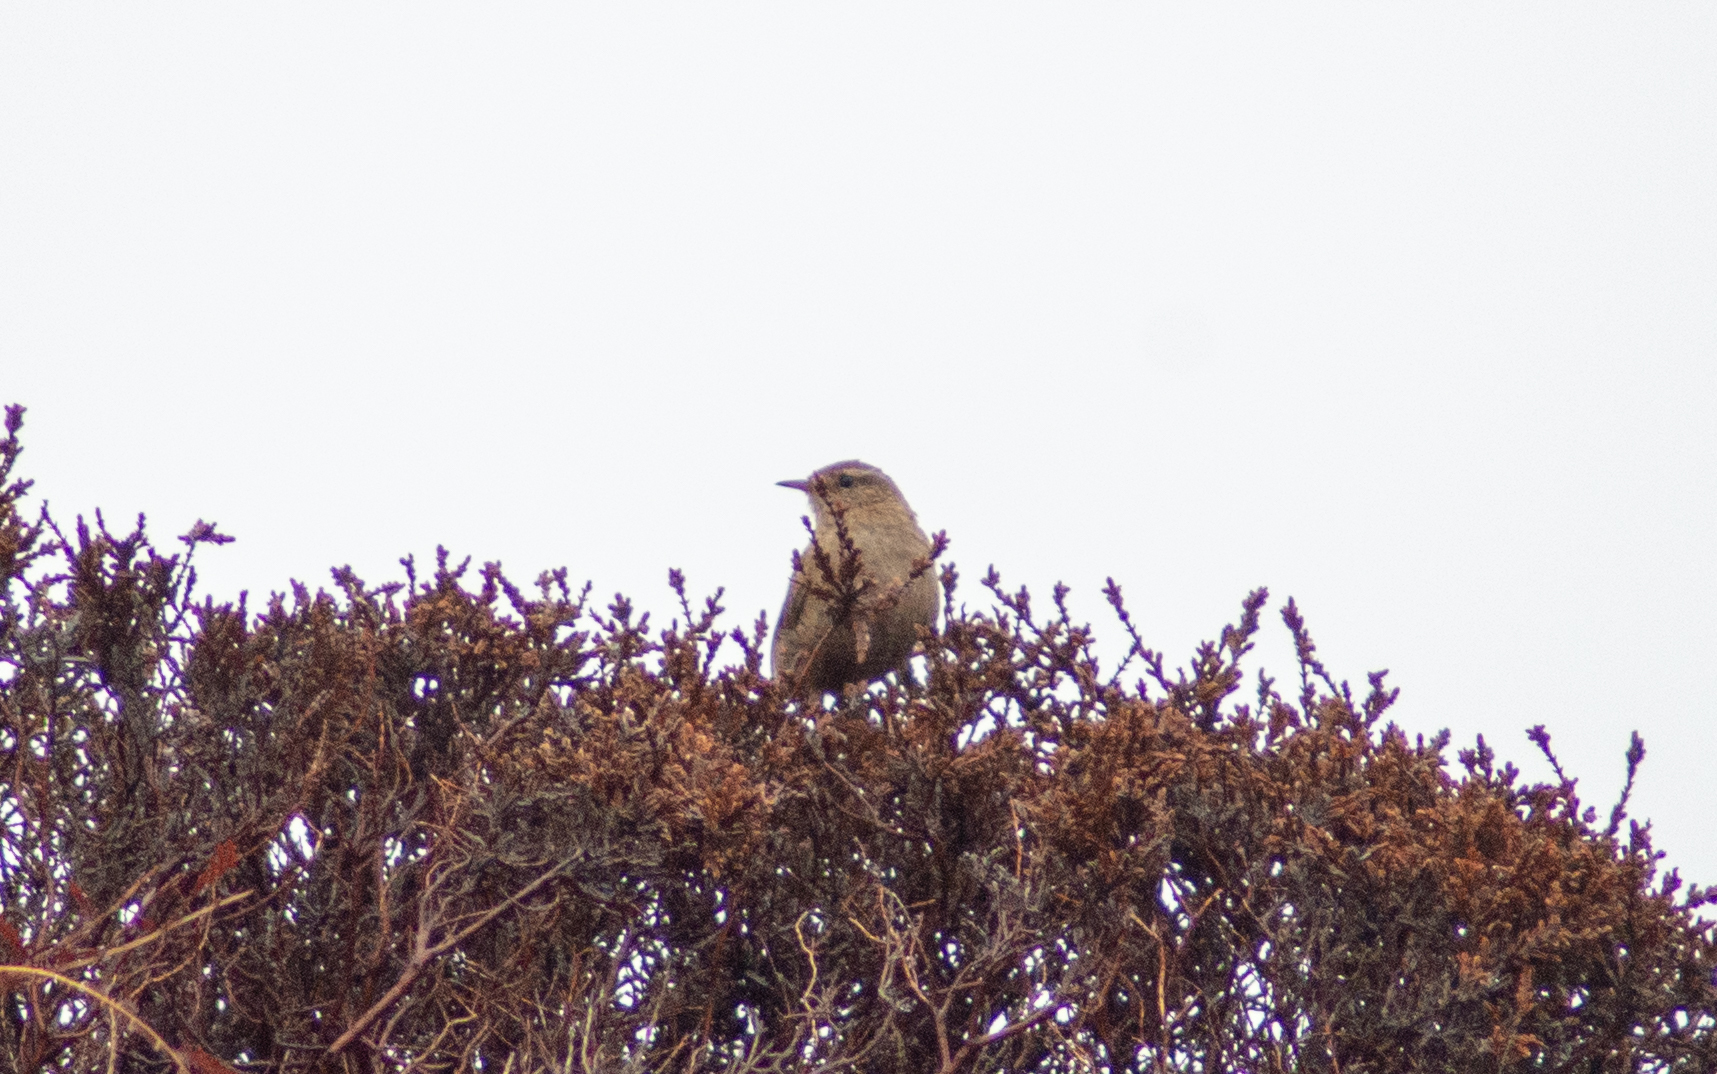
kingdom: Animalia
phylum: Chordata
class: Aves
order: Passeriformes
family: Troglodytidae
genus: Troglodytes
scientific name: Troglodytes troglodytes
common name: Eurasian wren
